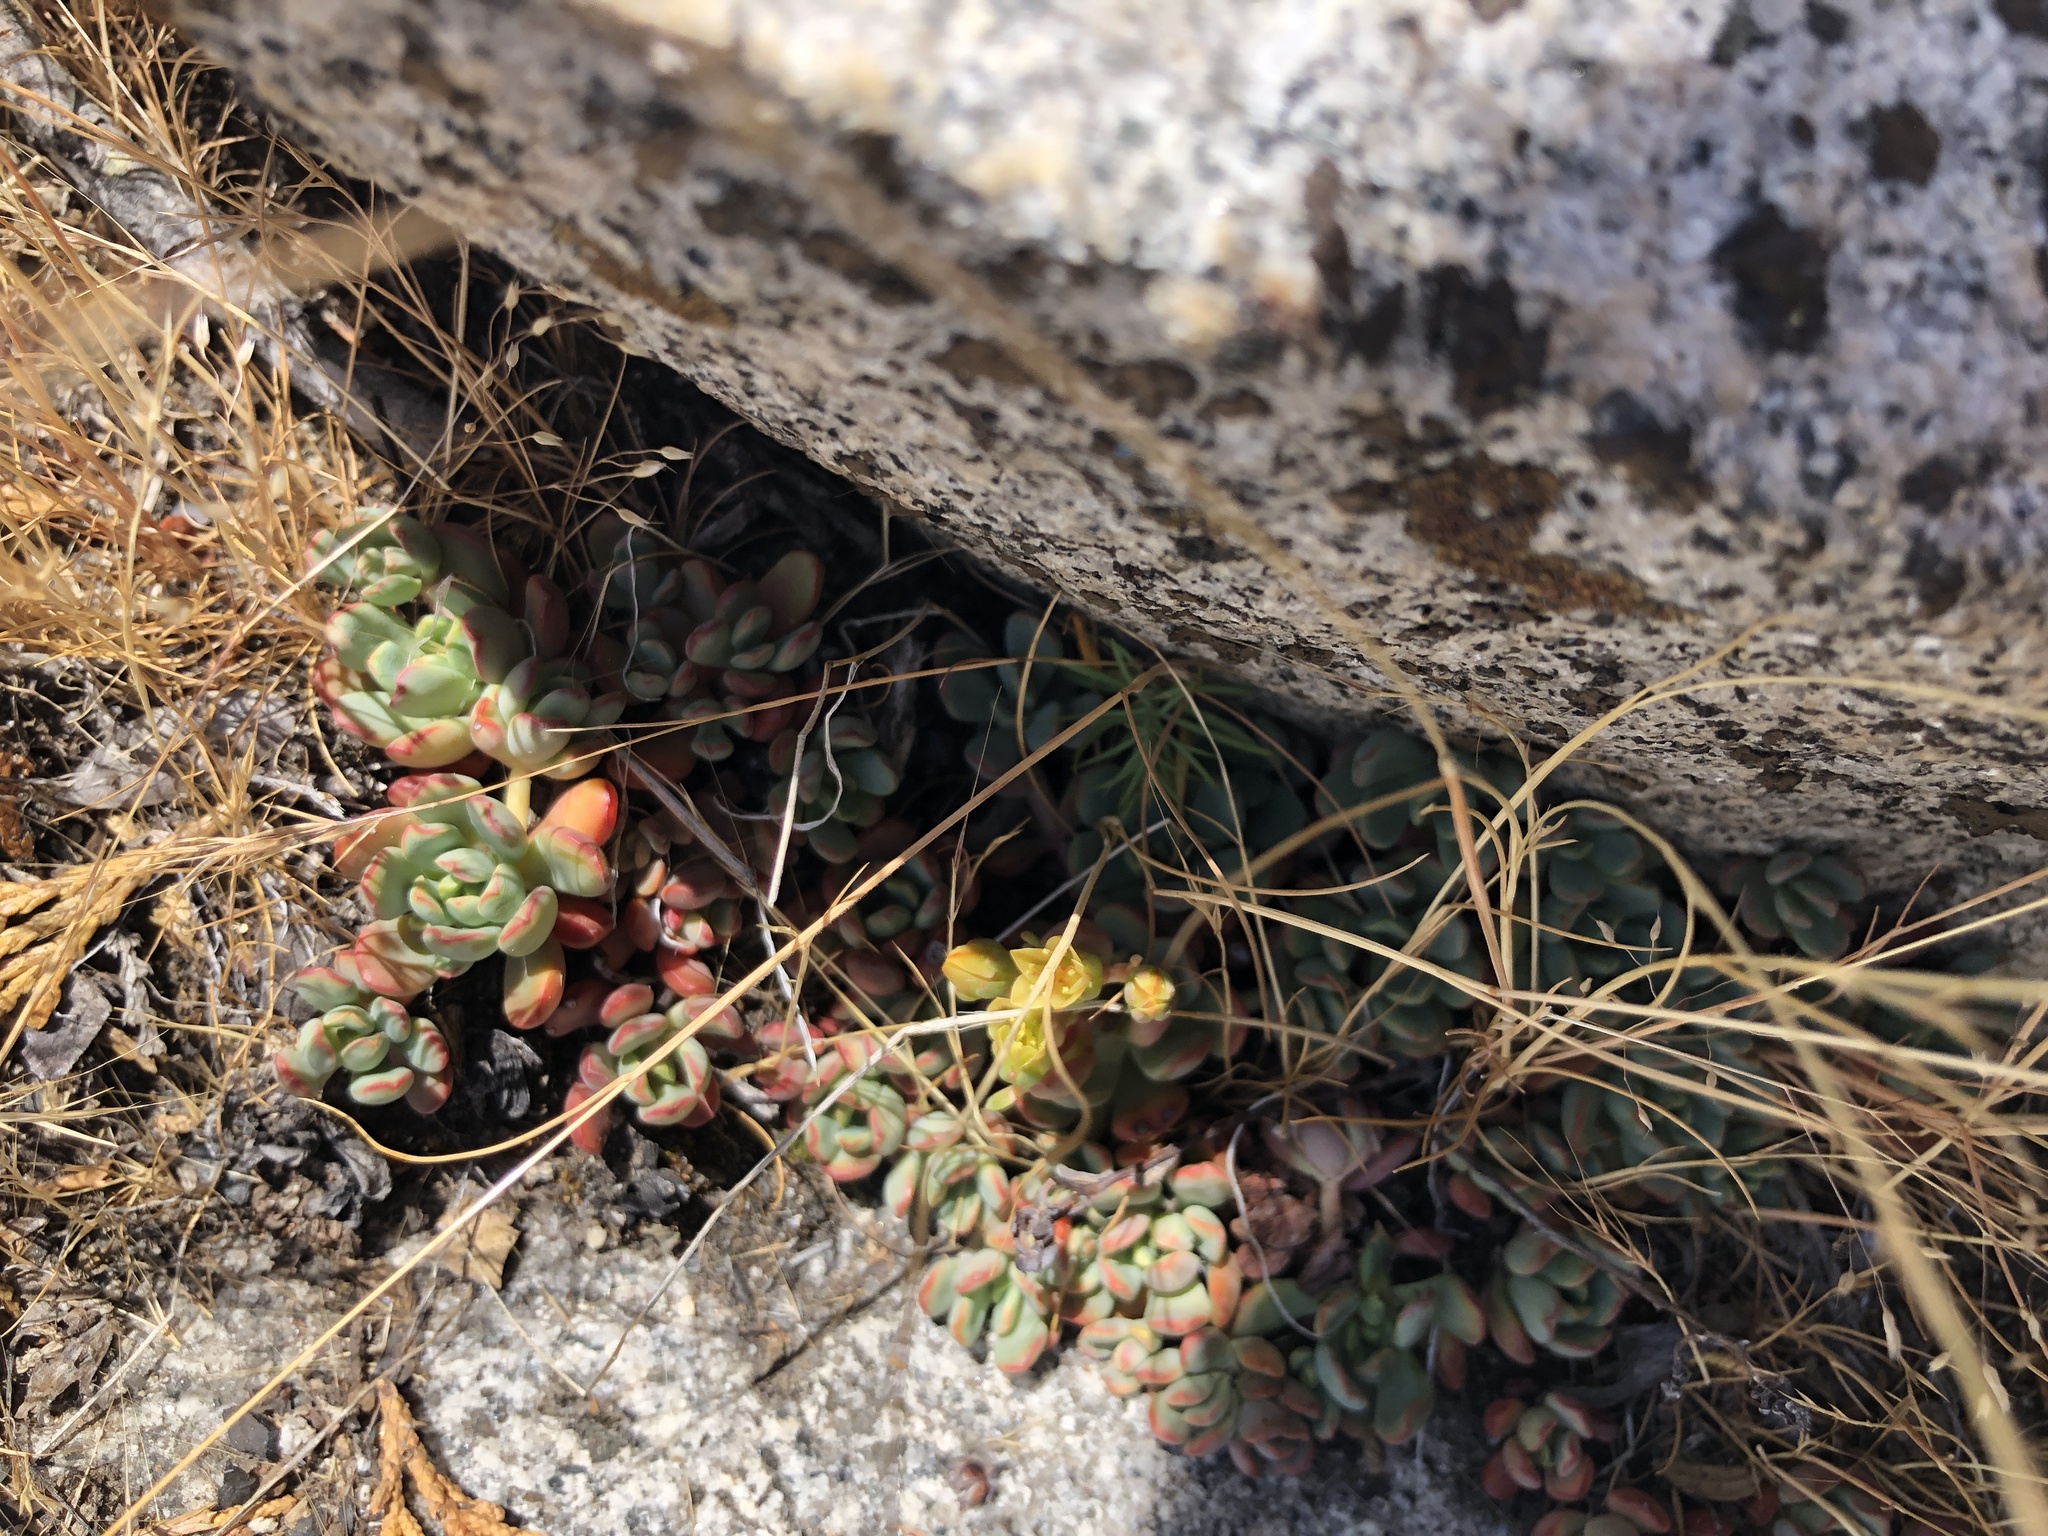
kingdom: Plantae
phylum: Tracheophyta
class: Magnoliopsida
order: Saxifragales
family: Crassulaceae
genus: Sedum
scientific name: Sedum obtusatum
